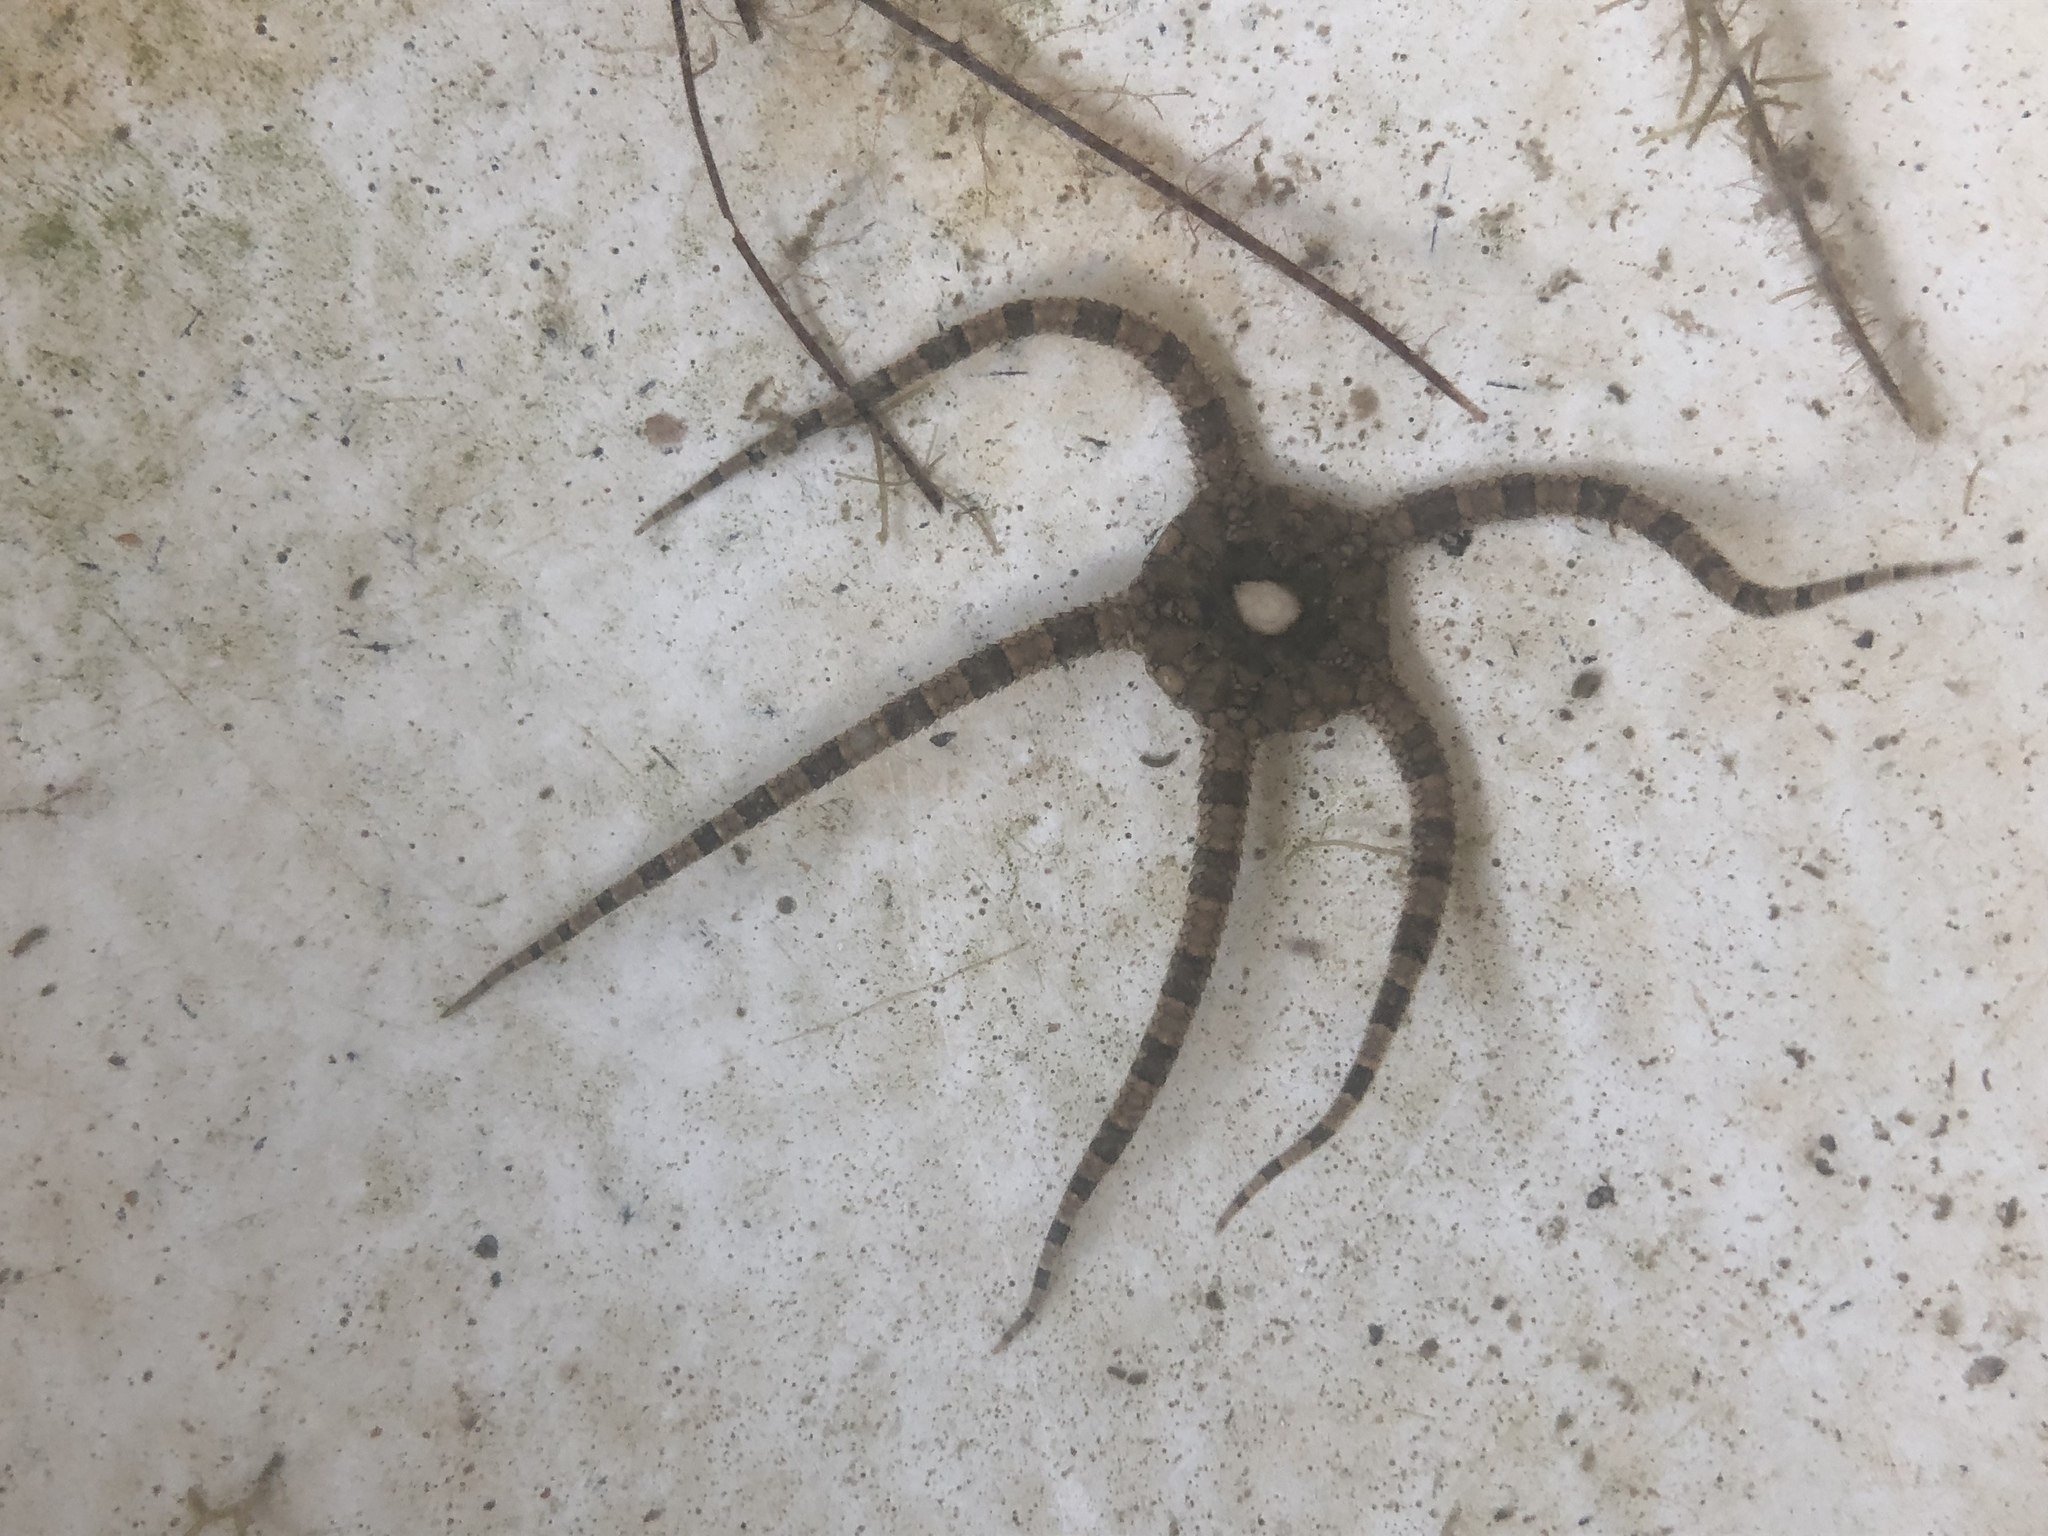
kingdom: Animalia
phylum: Echinodermata
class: Ophiuroidea
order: Amphilepidida
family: Ophiolepididae
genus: Ophiolepis
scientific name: Ophiolepis elegans
